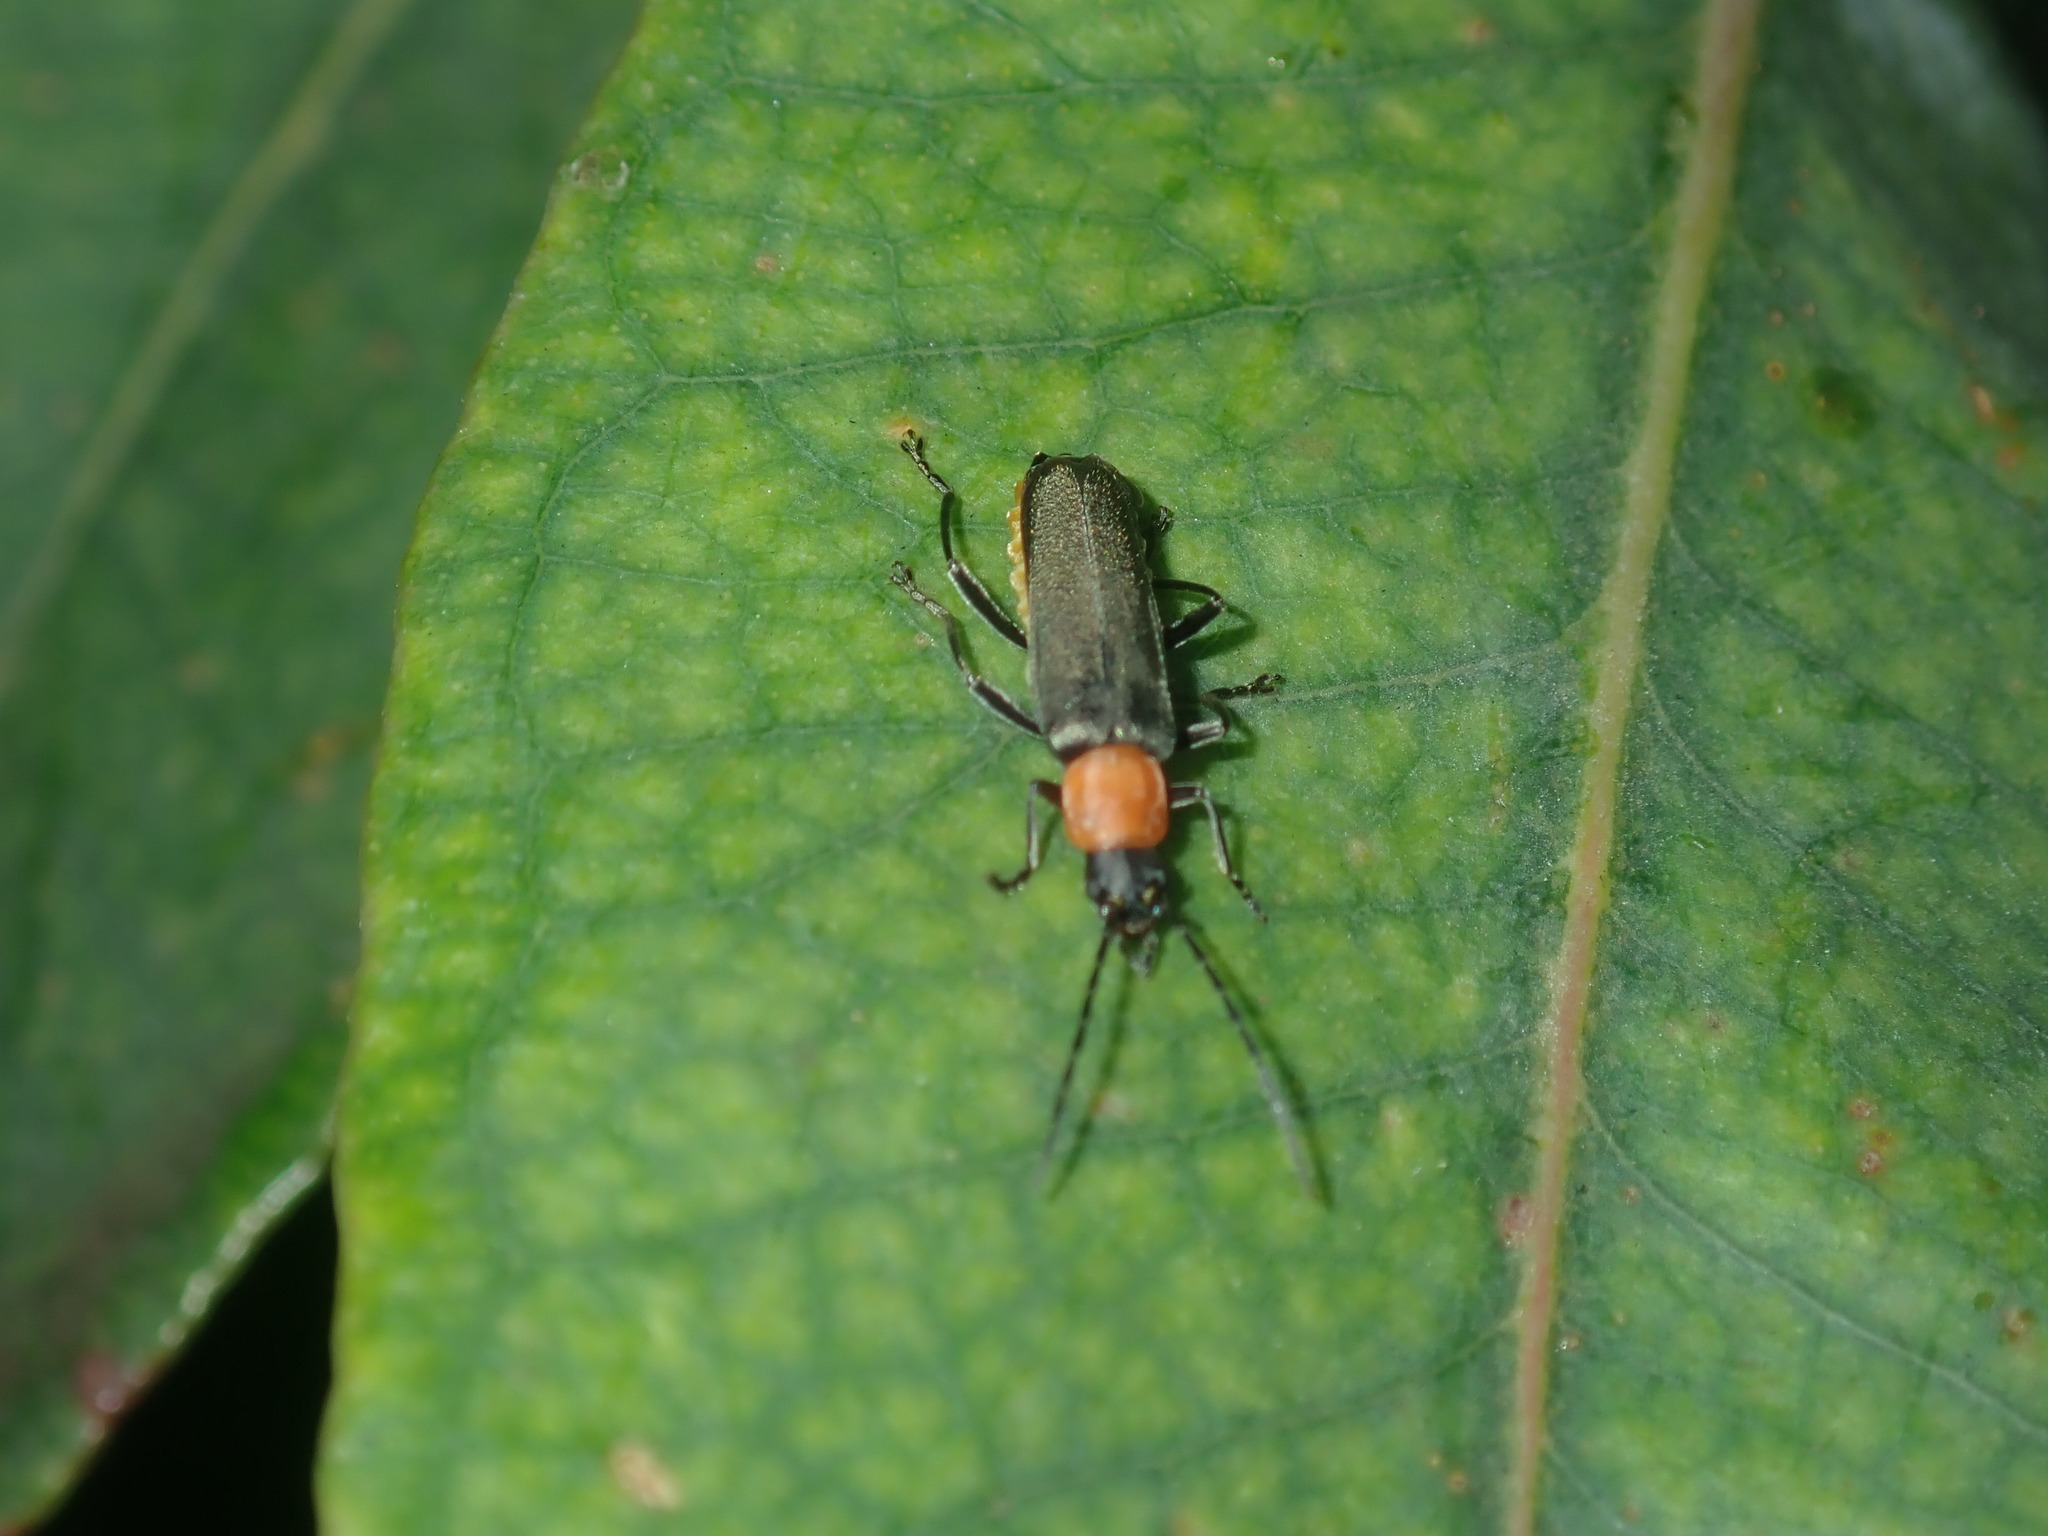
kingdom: Animalia
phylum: Arthropoda
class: Insecta
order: Coleoptera
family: Cantharidae
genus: Chauliognathus
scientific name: Chauliognathus
